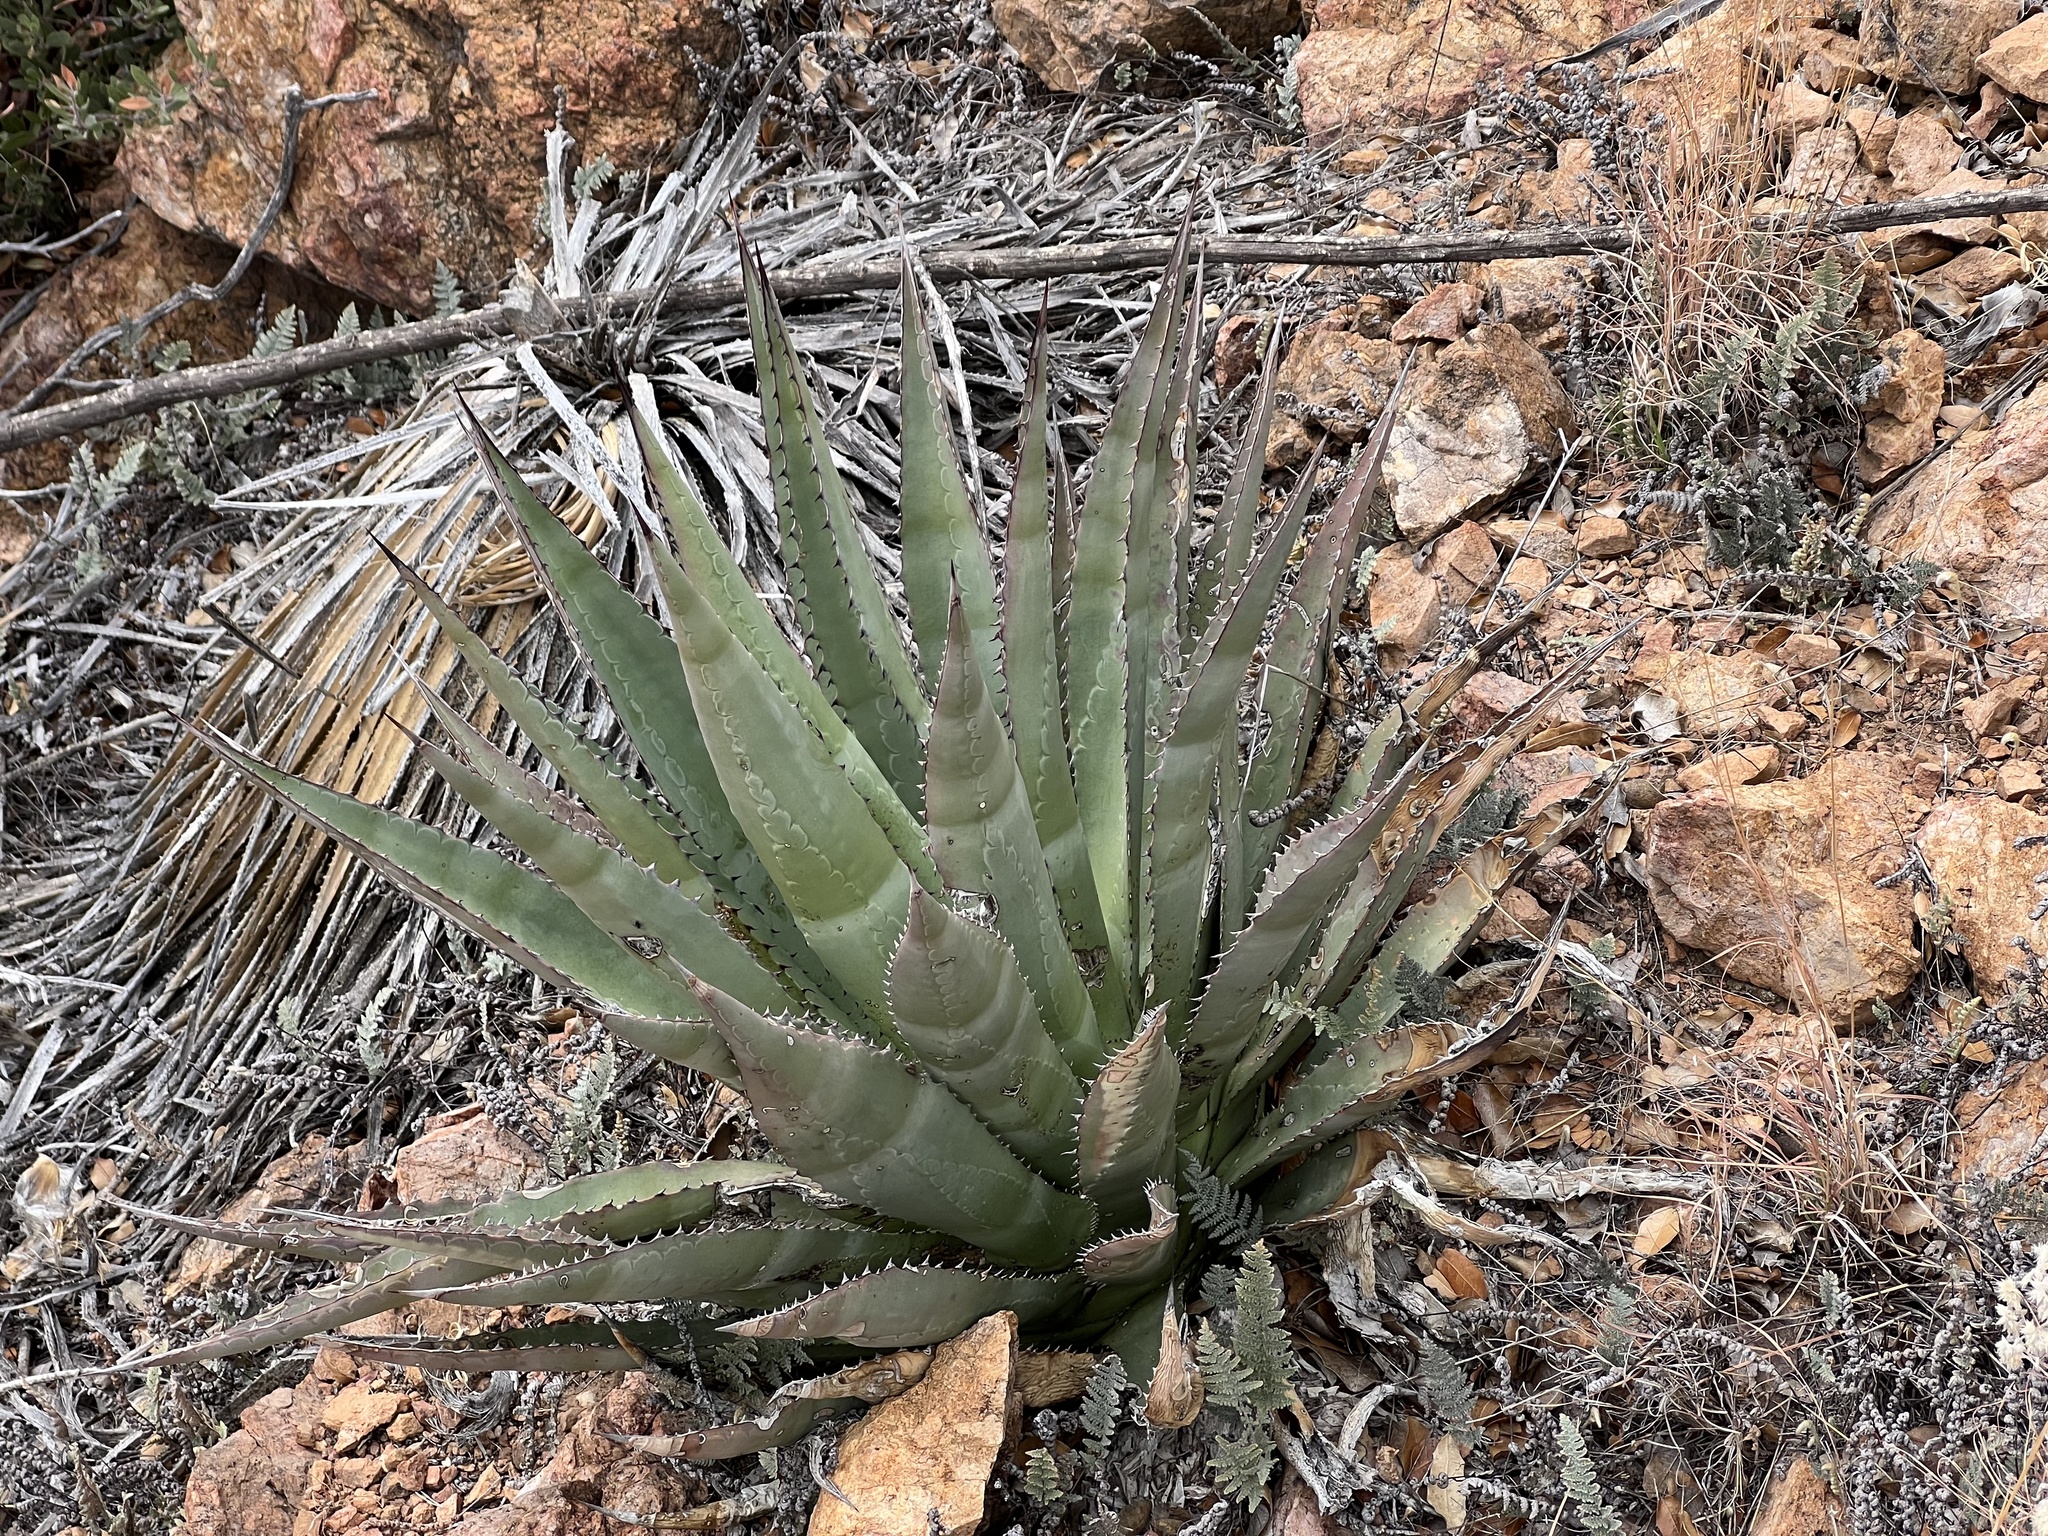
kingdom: Plantae
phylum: Tracheophyta
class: Liliopsida
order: Asparagales
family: Asparagaceae
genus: Agave
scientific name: Agave palmeri
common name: Palmer agave
